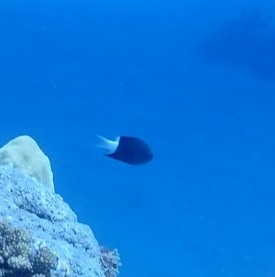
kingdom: Animalia
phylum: Chordata
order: Perciformes
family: Pomacentridae
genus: Pycnochromis
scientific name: Pycnochromis margaritifer
